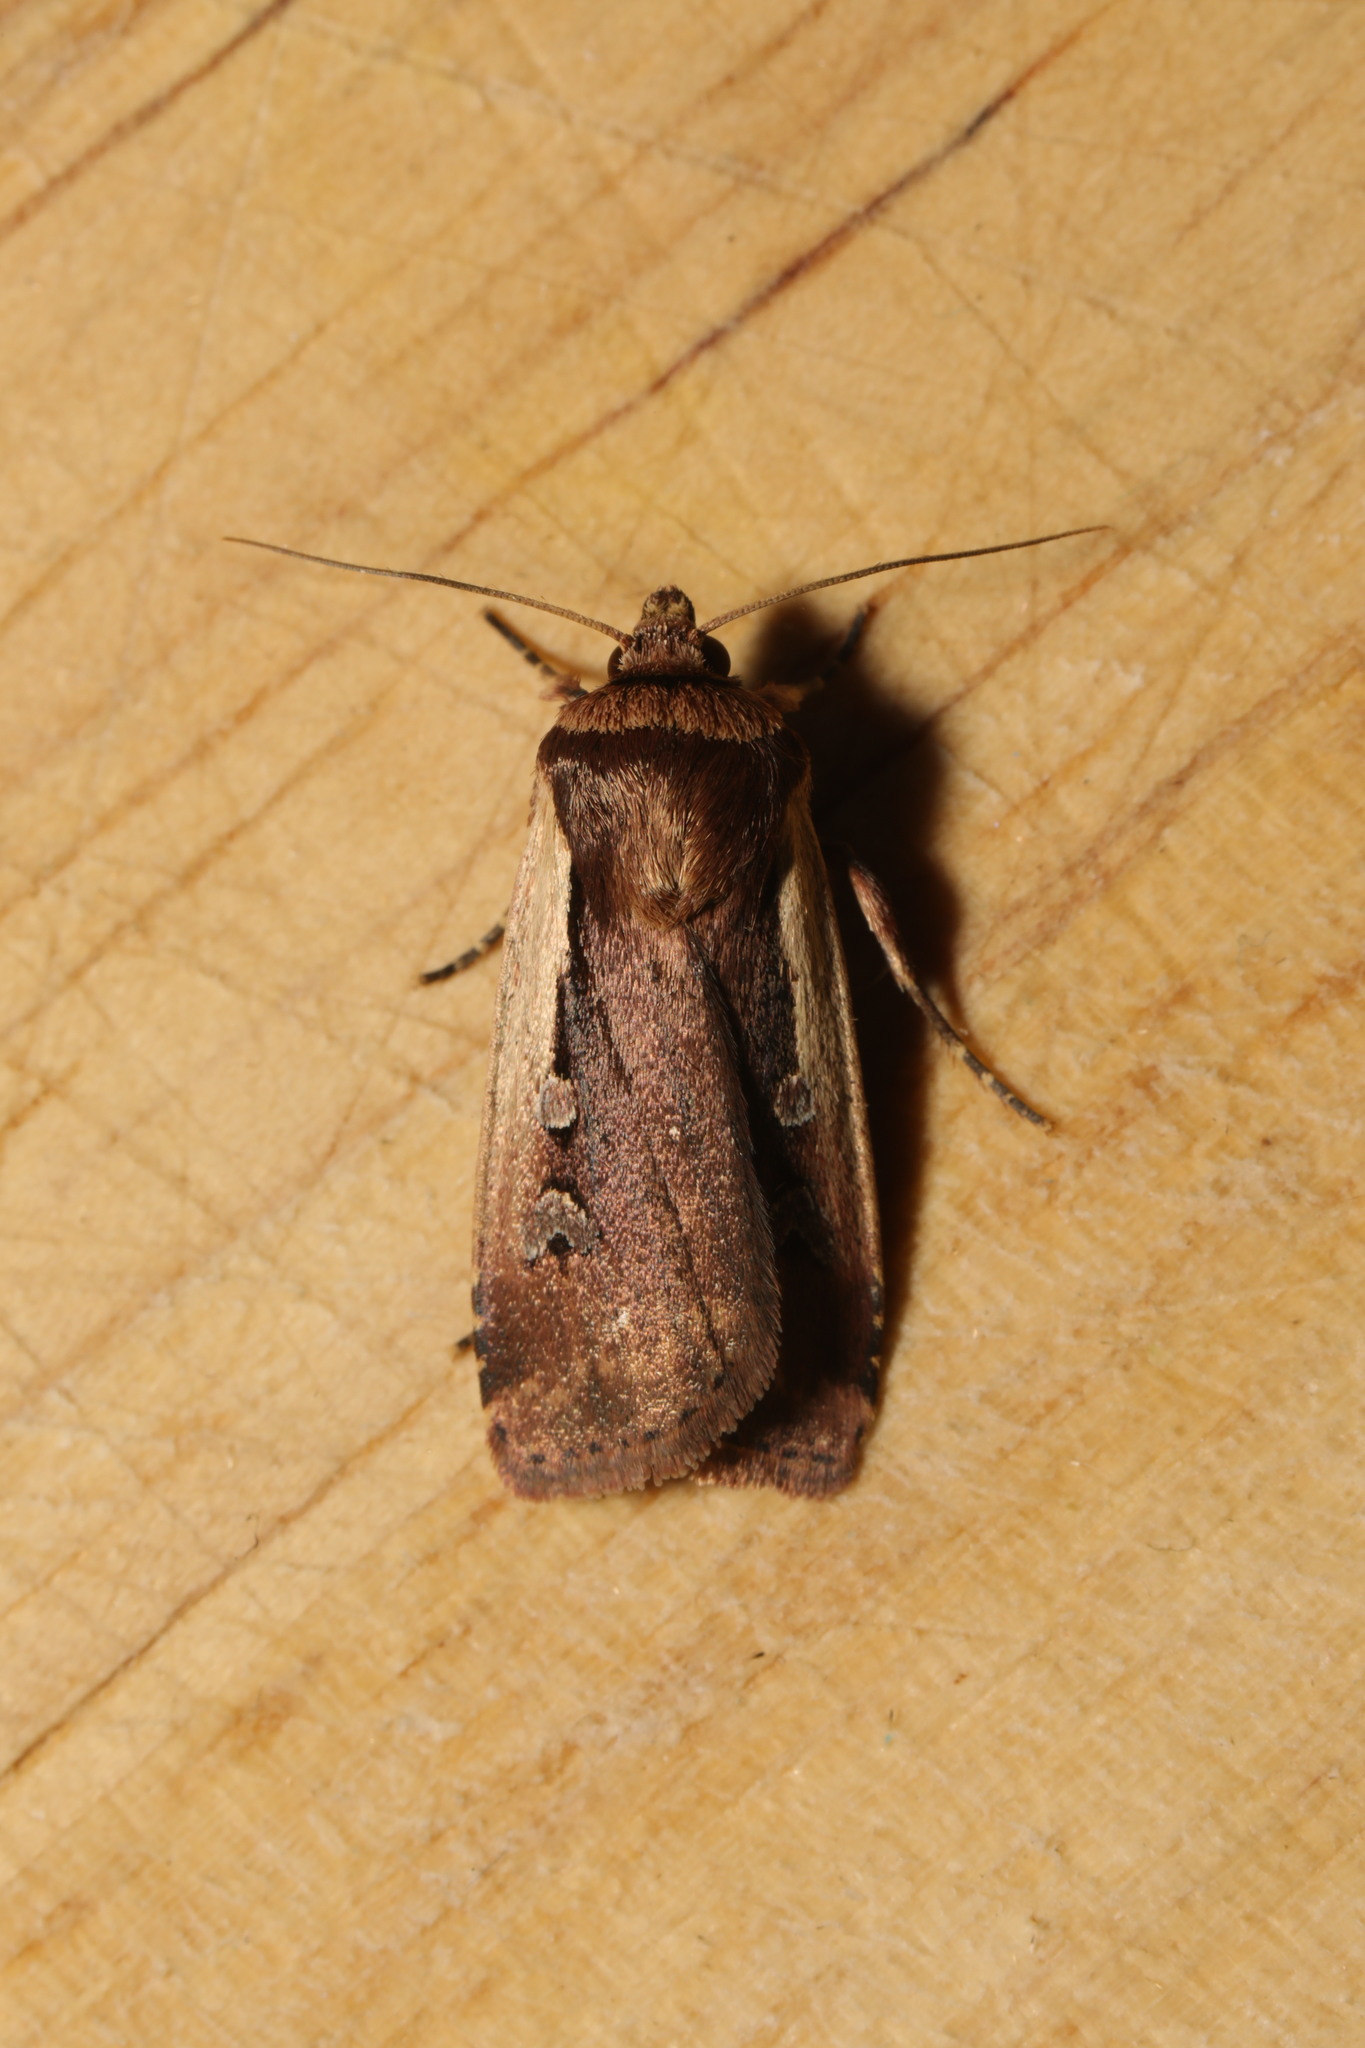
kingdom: Animalia
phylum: Arthropoda
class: Insecta
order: Lepidoptera
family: Noctuidae
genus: Ochropleura
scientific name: Ochropleura plecta
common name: Flame shoulder
